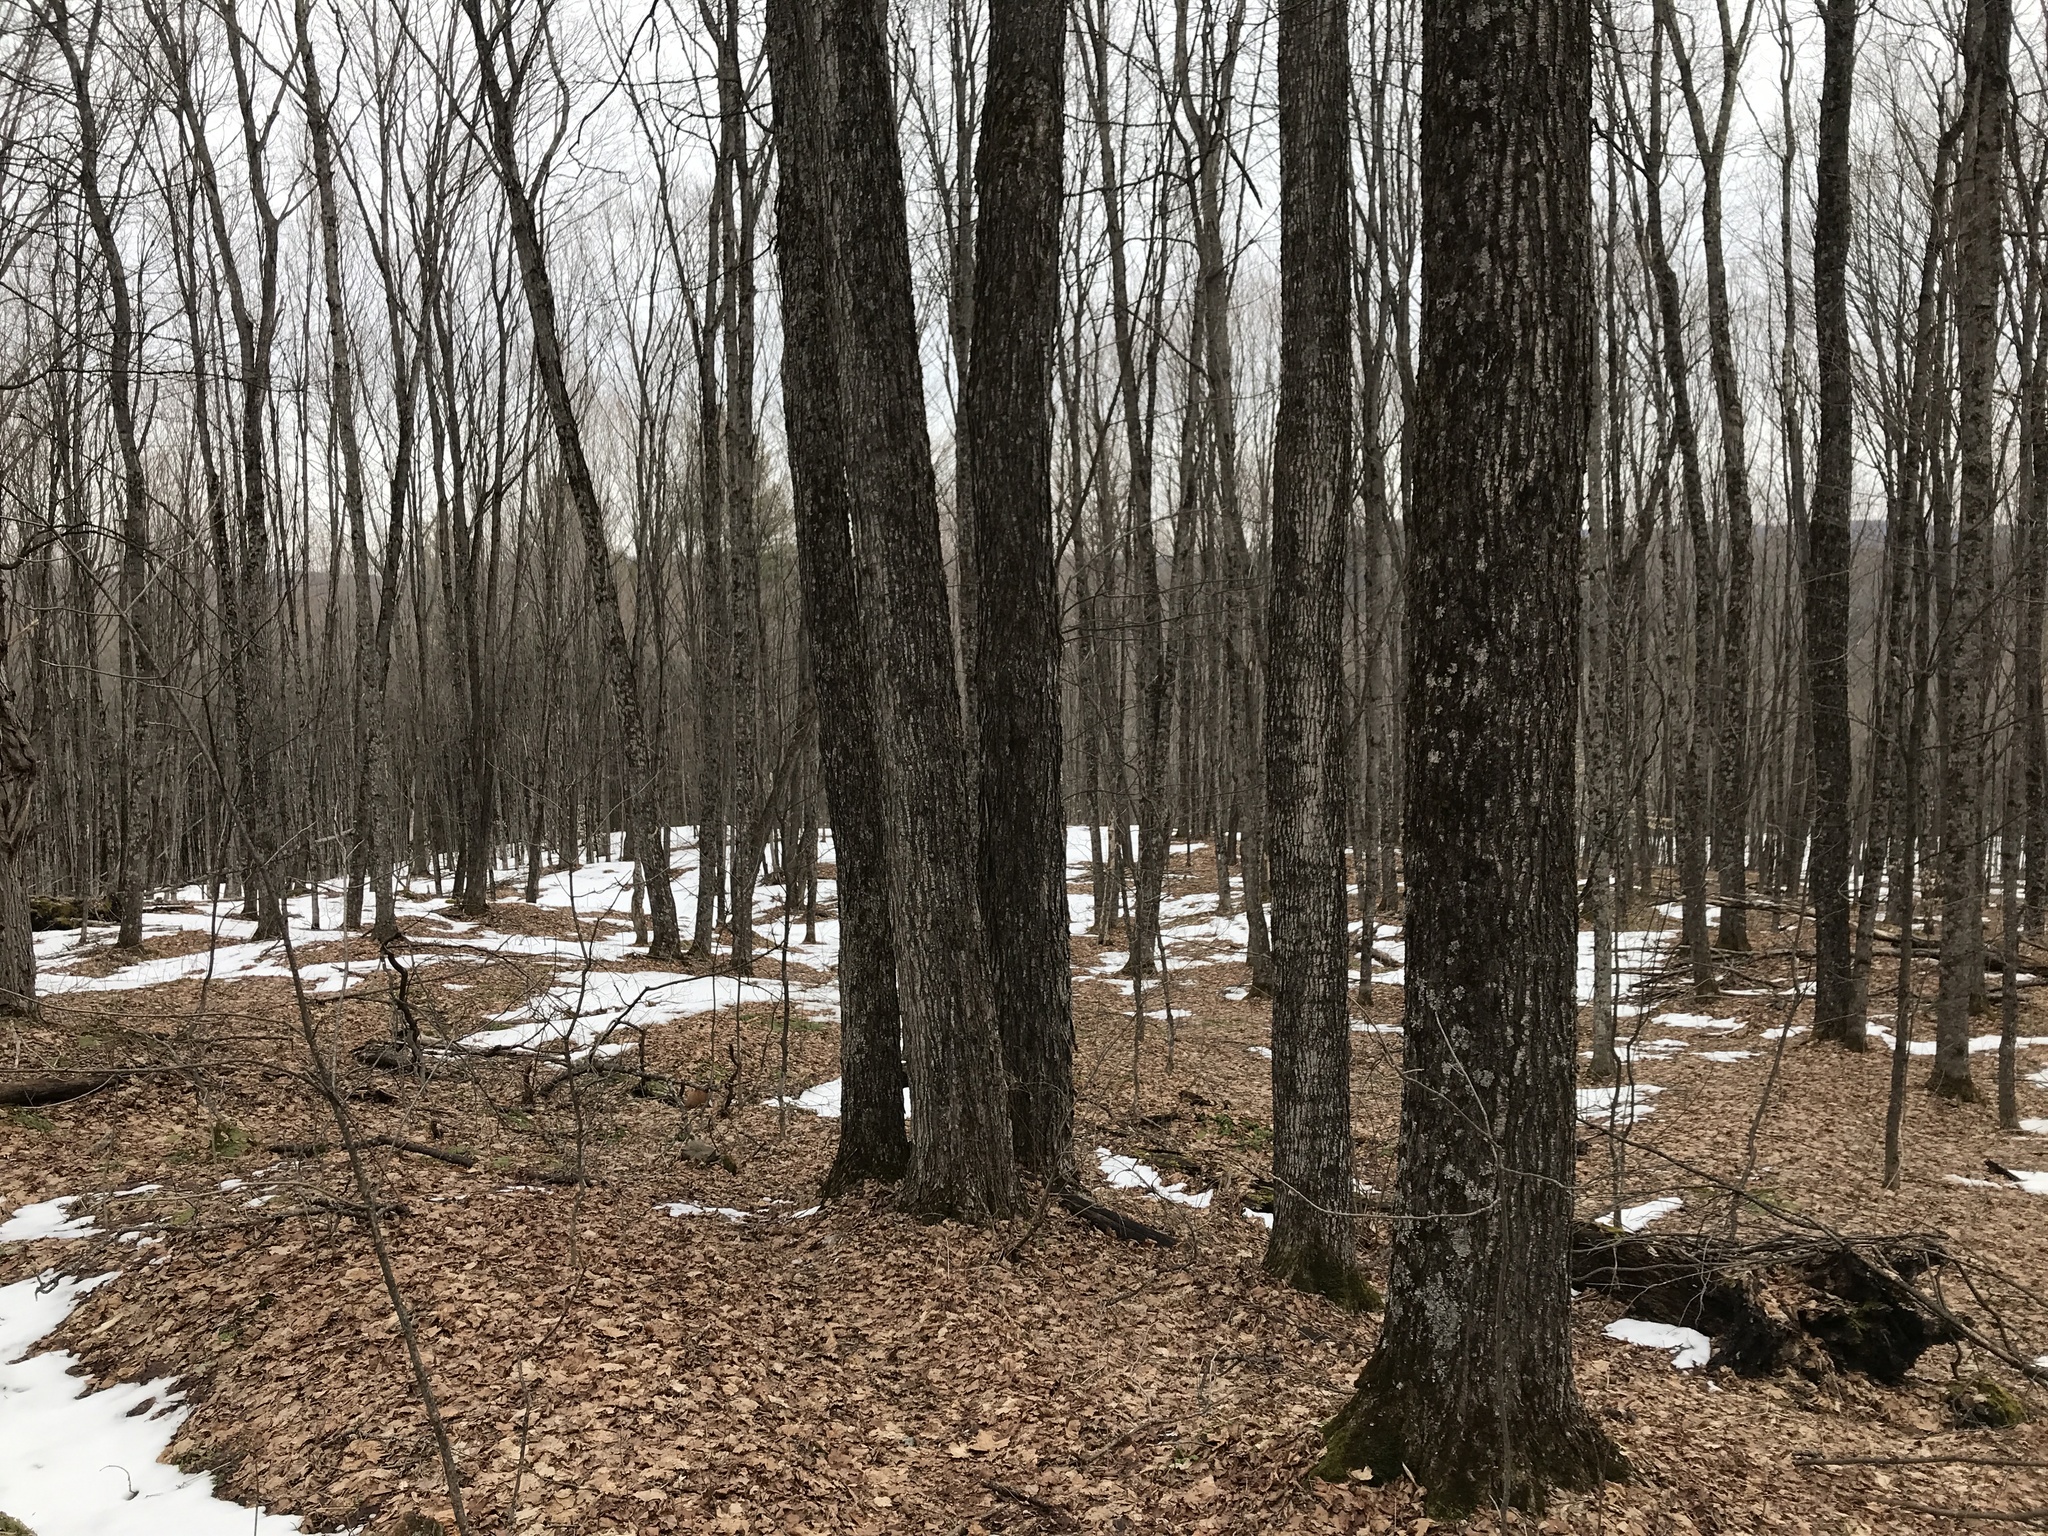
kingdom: Plantae
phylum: Tracheophyta
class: Magnoliopsida
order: Sapindales
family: Sapindaceae
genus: Acer
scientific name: Acer saccharum
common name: Sugar maple
